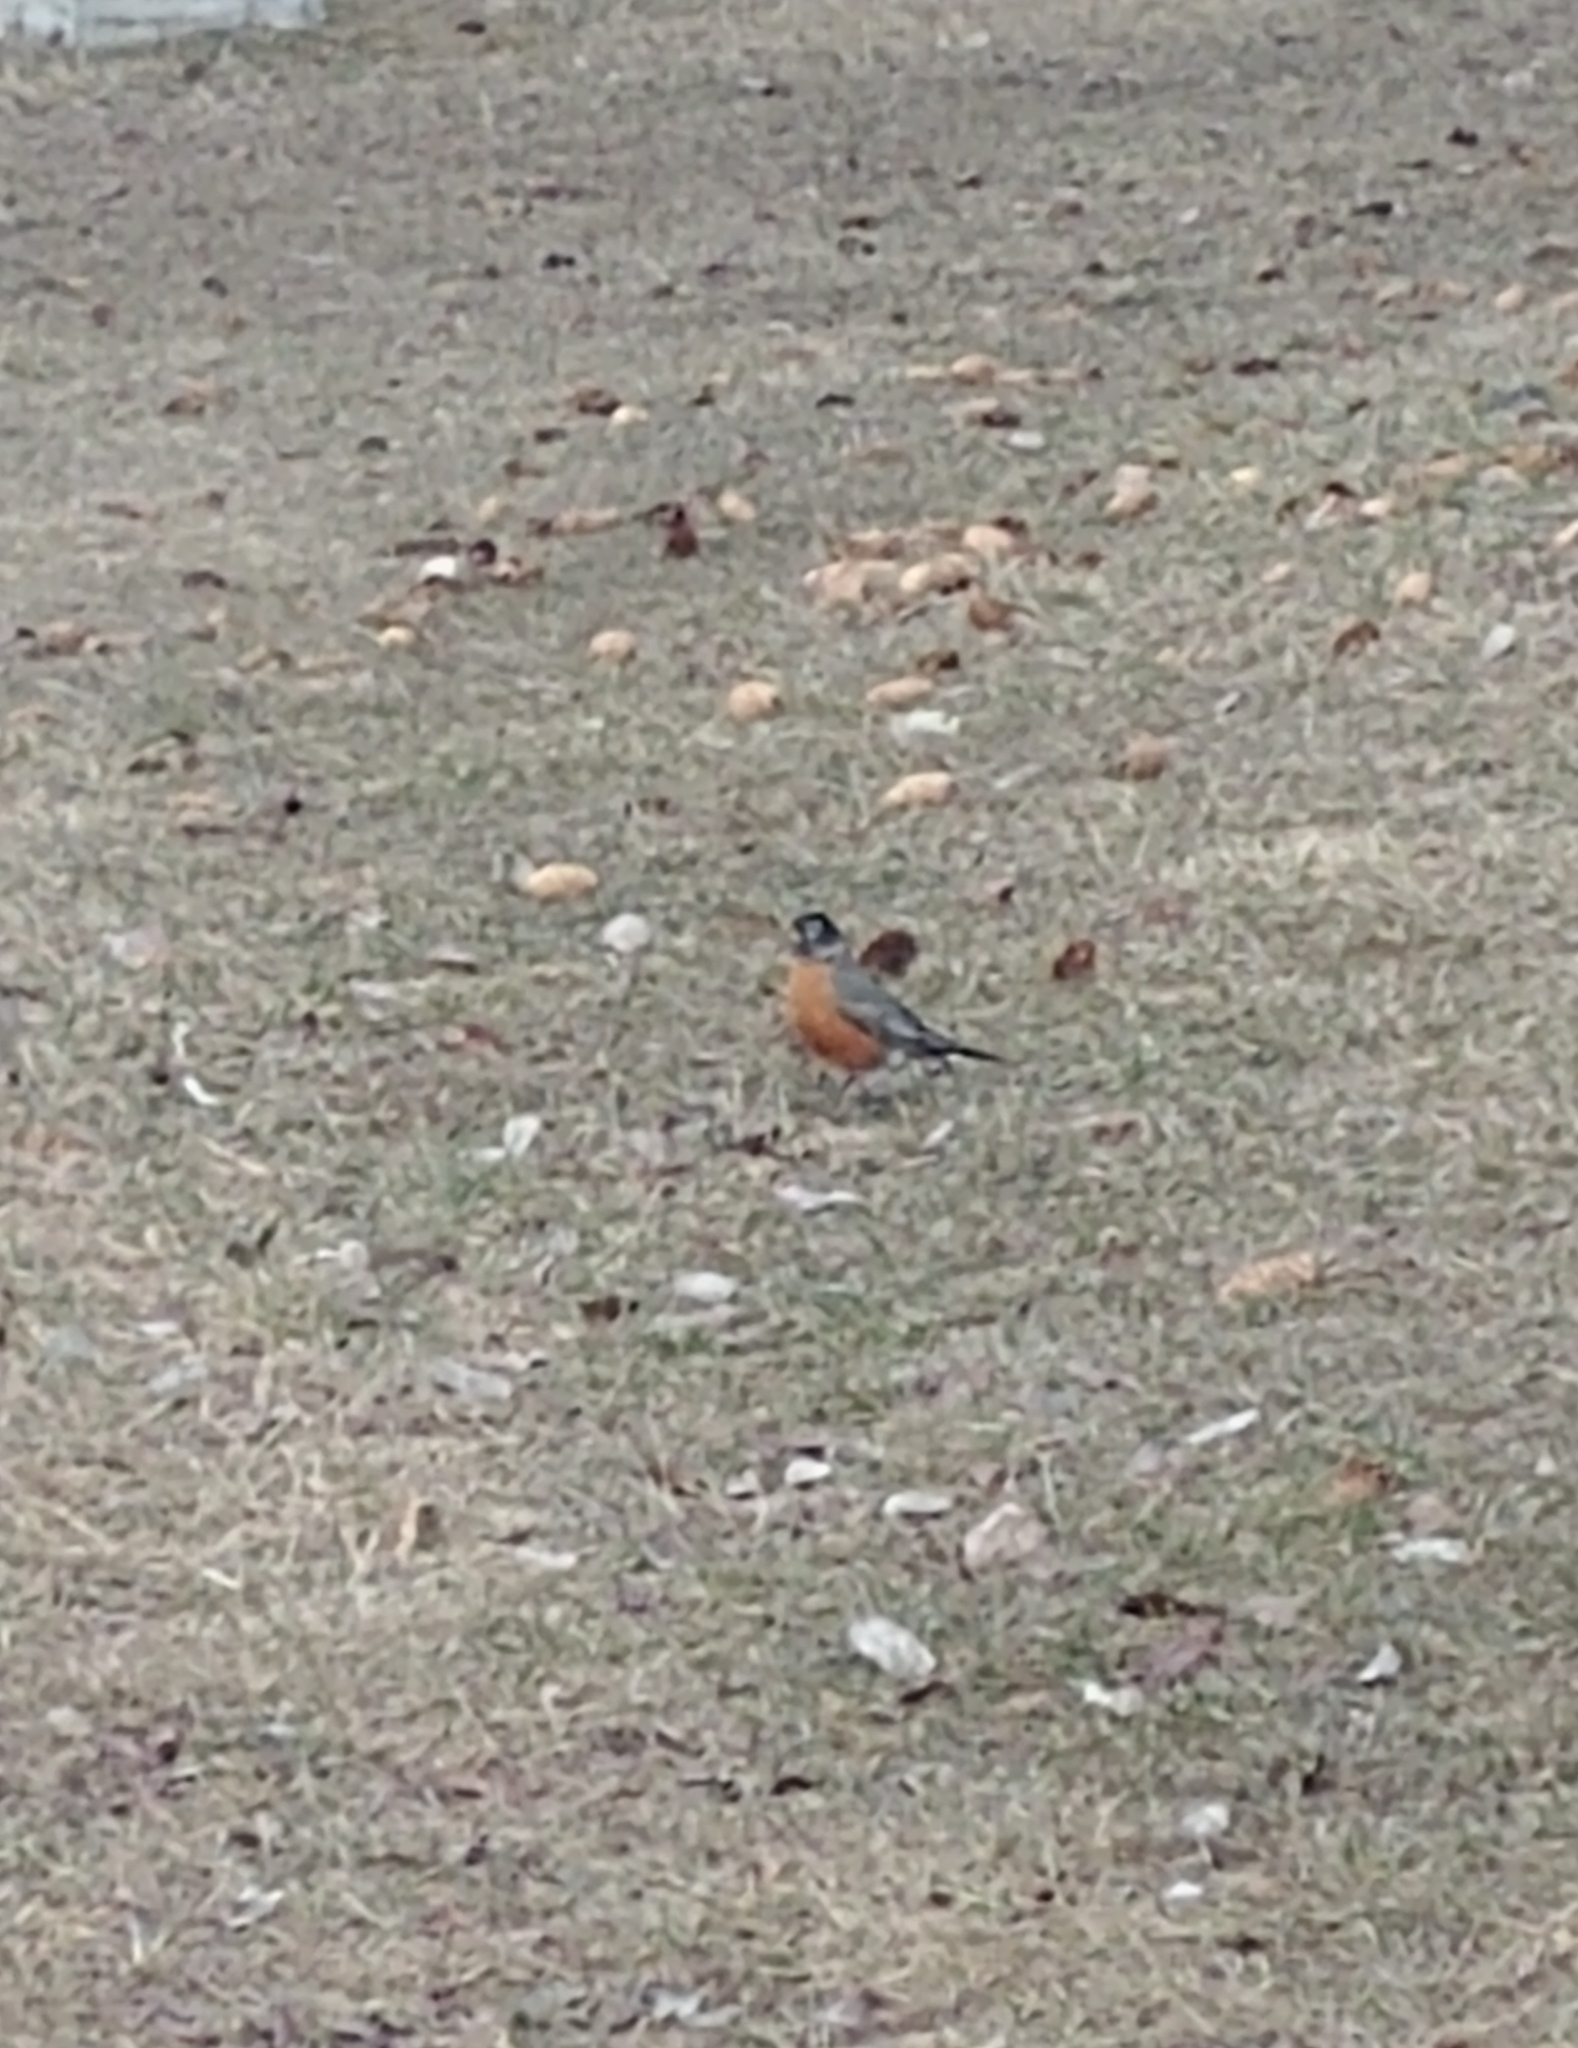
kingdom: Animalia
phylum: Chordata
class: Aves
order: Passeriformes
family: Turdidae
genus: Turdus
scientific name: Turdus migratorius
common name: American robin
